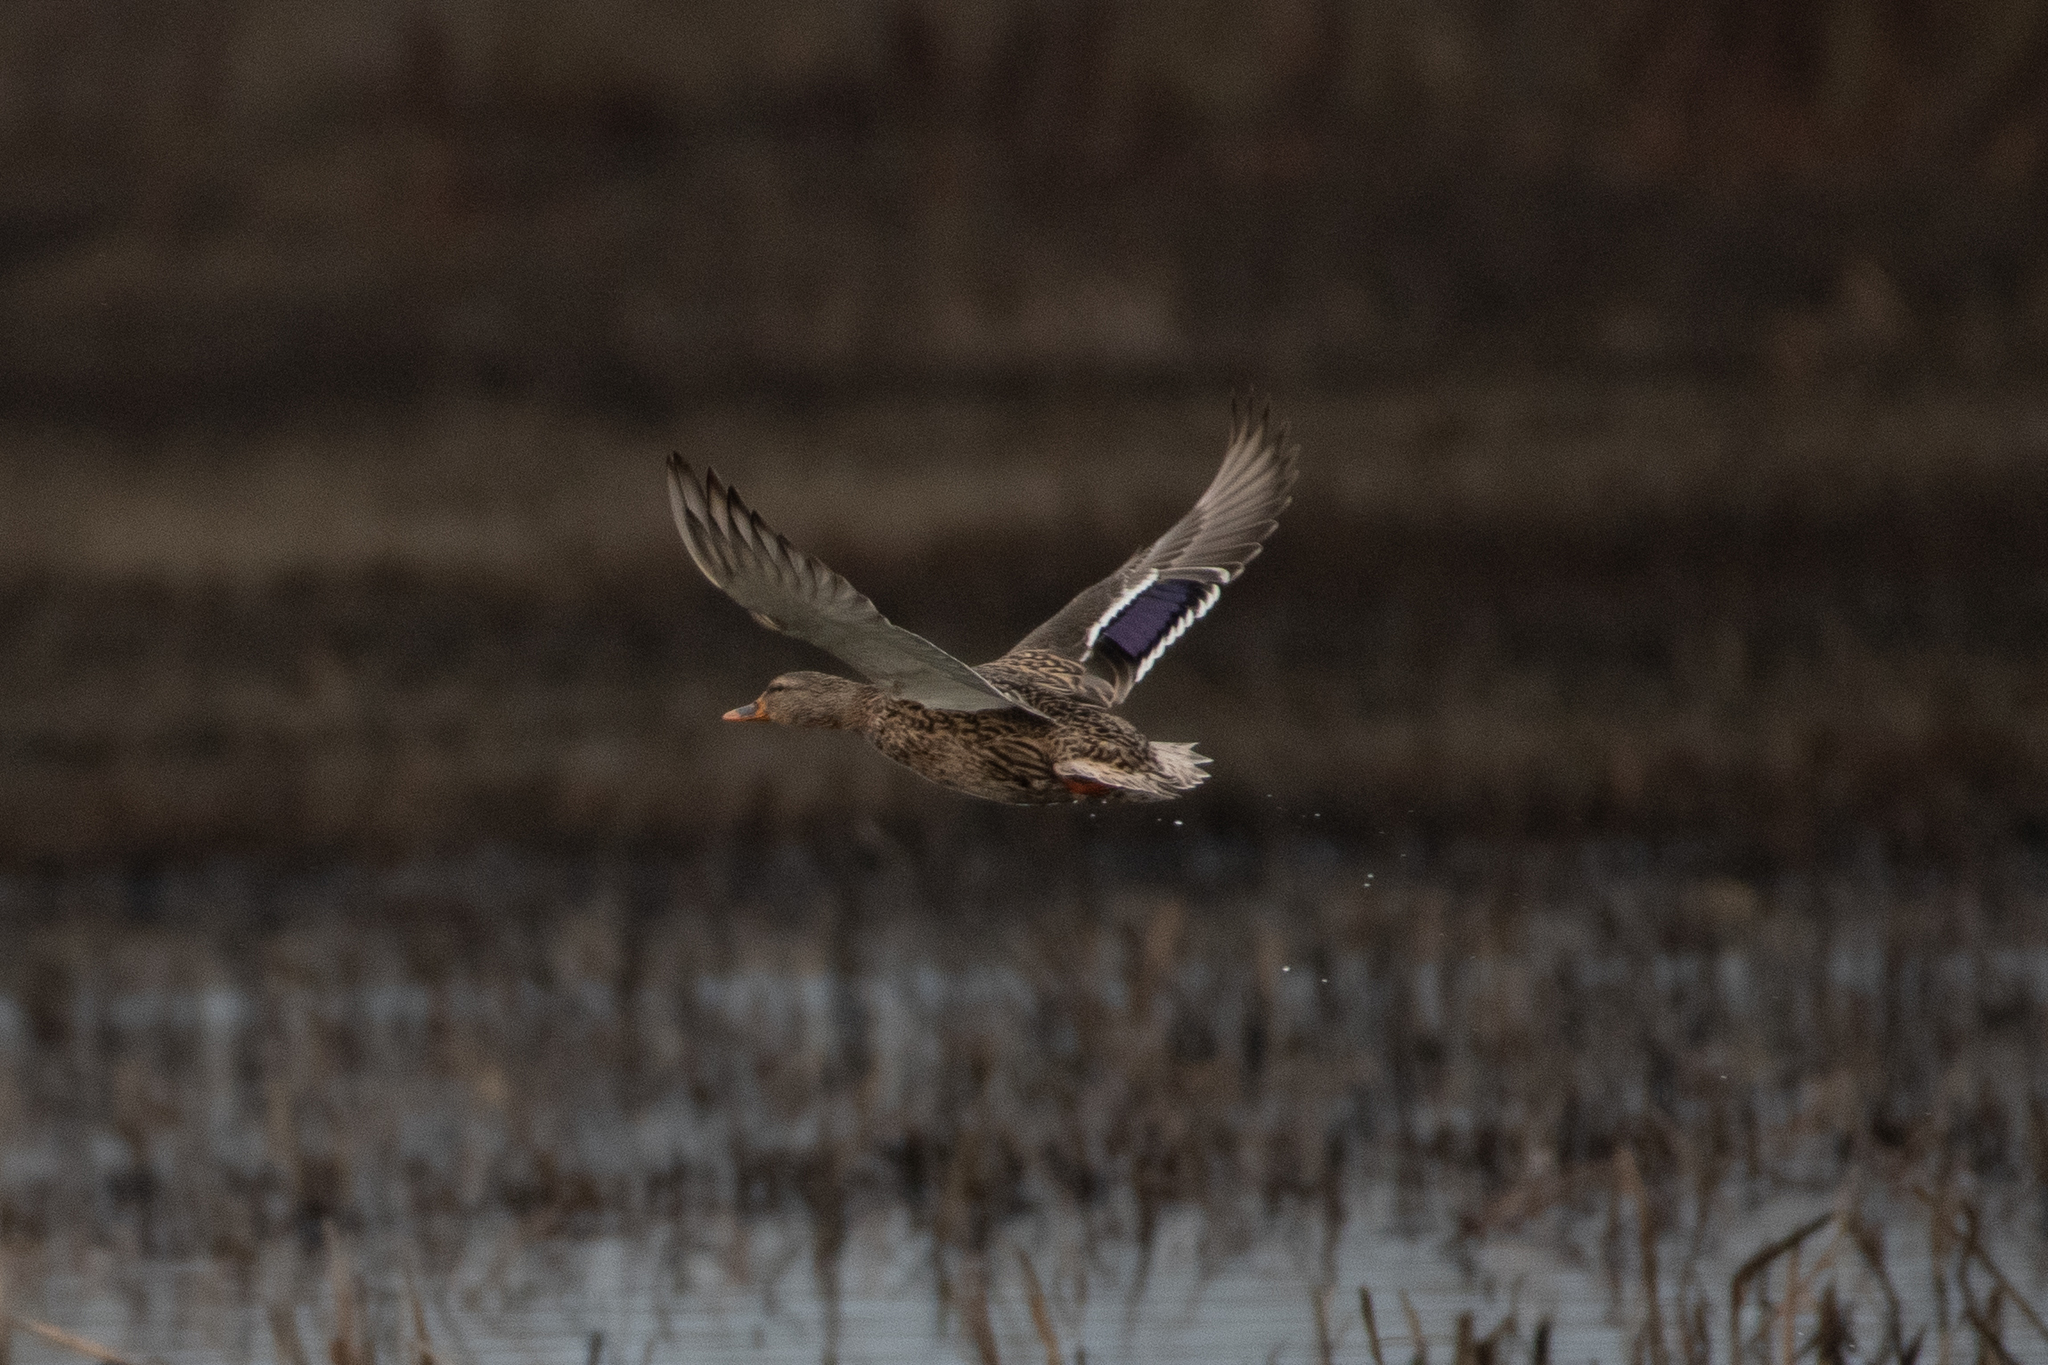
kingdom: Animalia
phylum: Chordata
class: Aves
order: Anseriformes
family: Anatidae
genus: Anas
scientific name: Anas platyrhynchos
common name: Mallard
